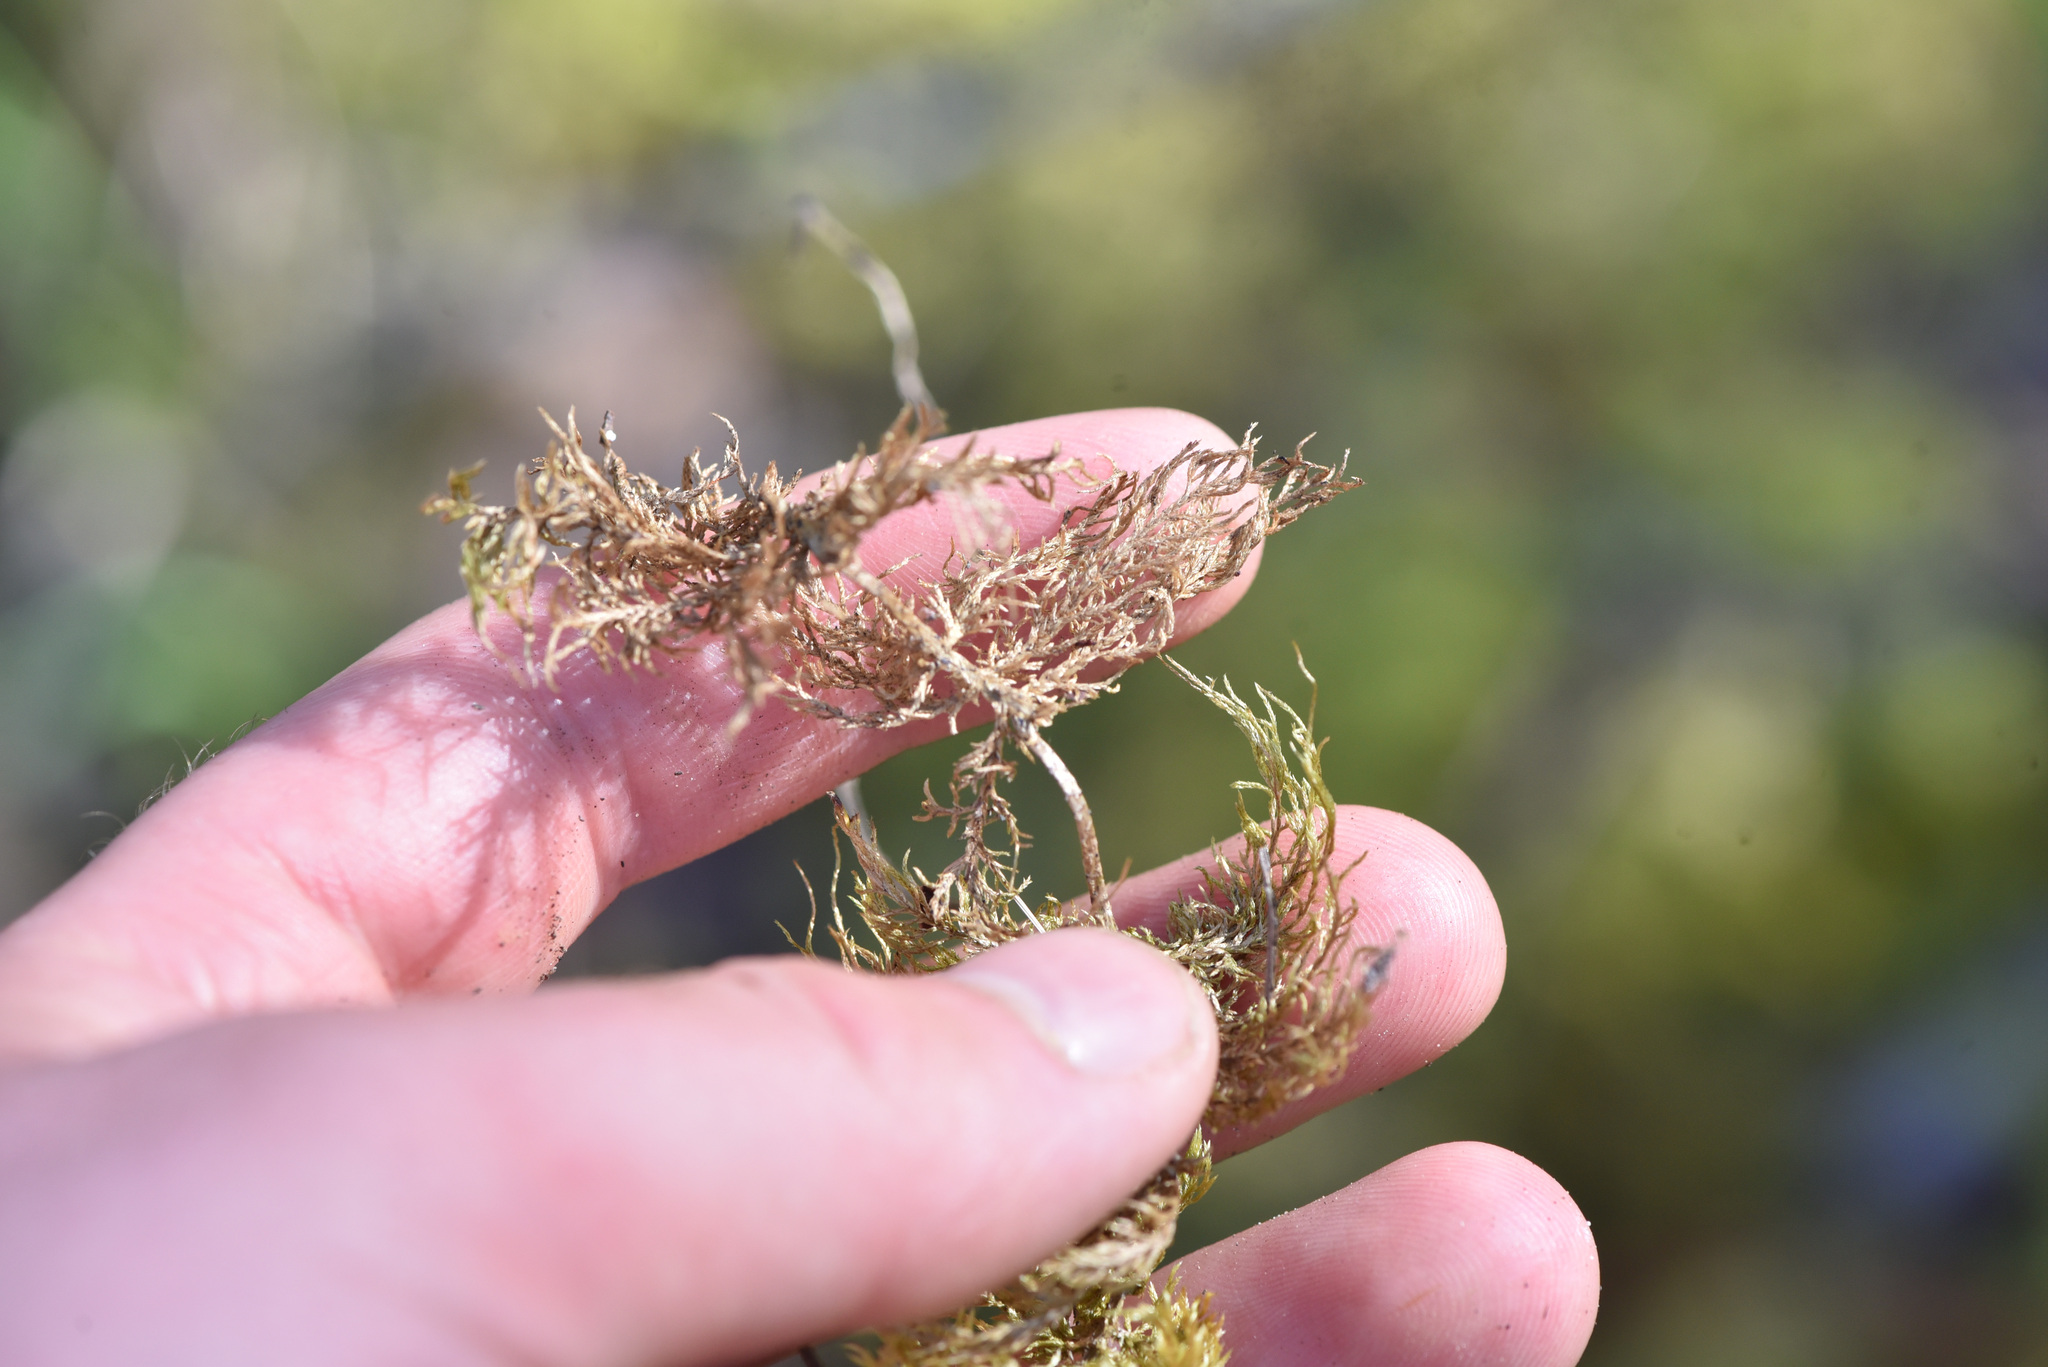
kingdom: Plantae
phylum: Bryophyta
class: Bryopsida
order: Hypnales
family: Hylocomiaceae
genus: Hylocomium
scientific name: Hylocomium splendens
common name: Stairstep moss
